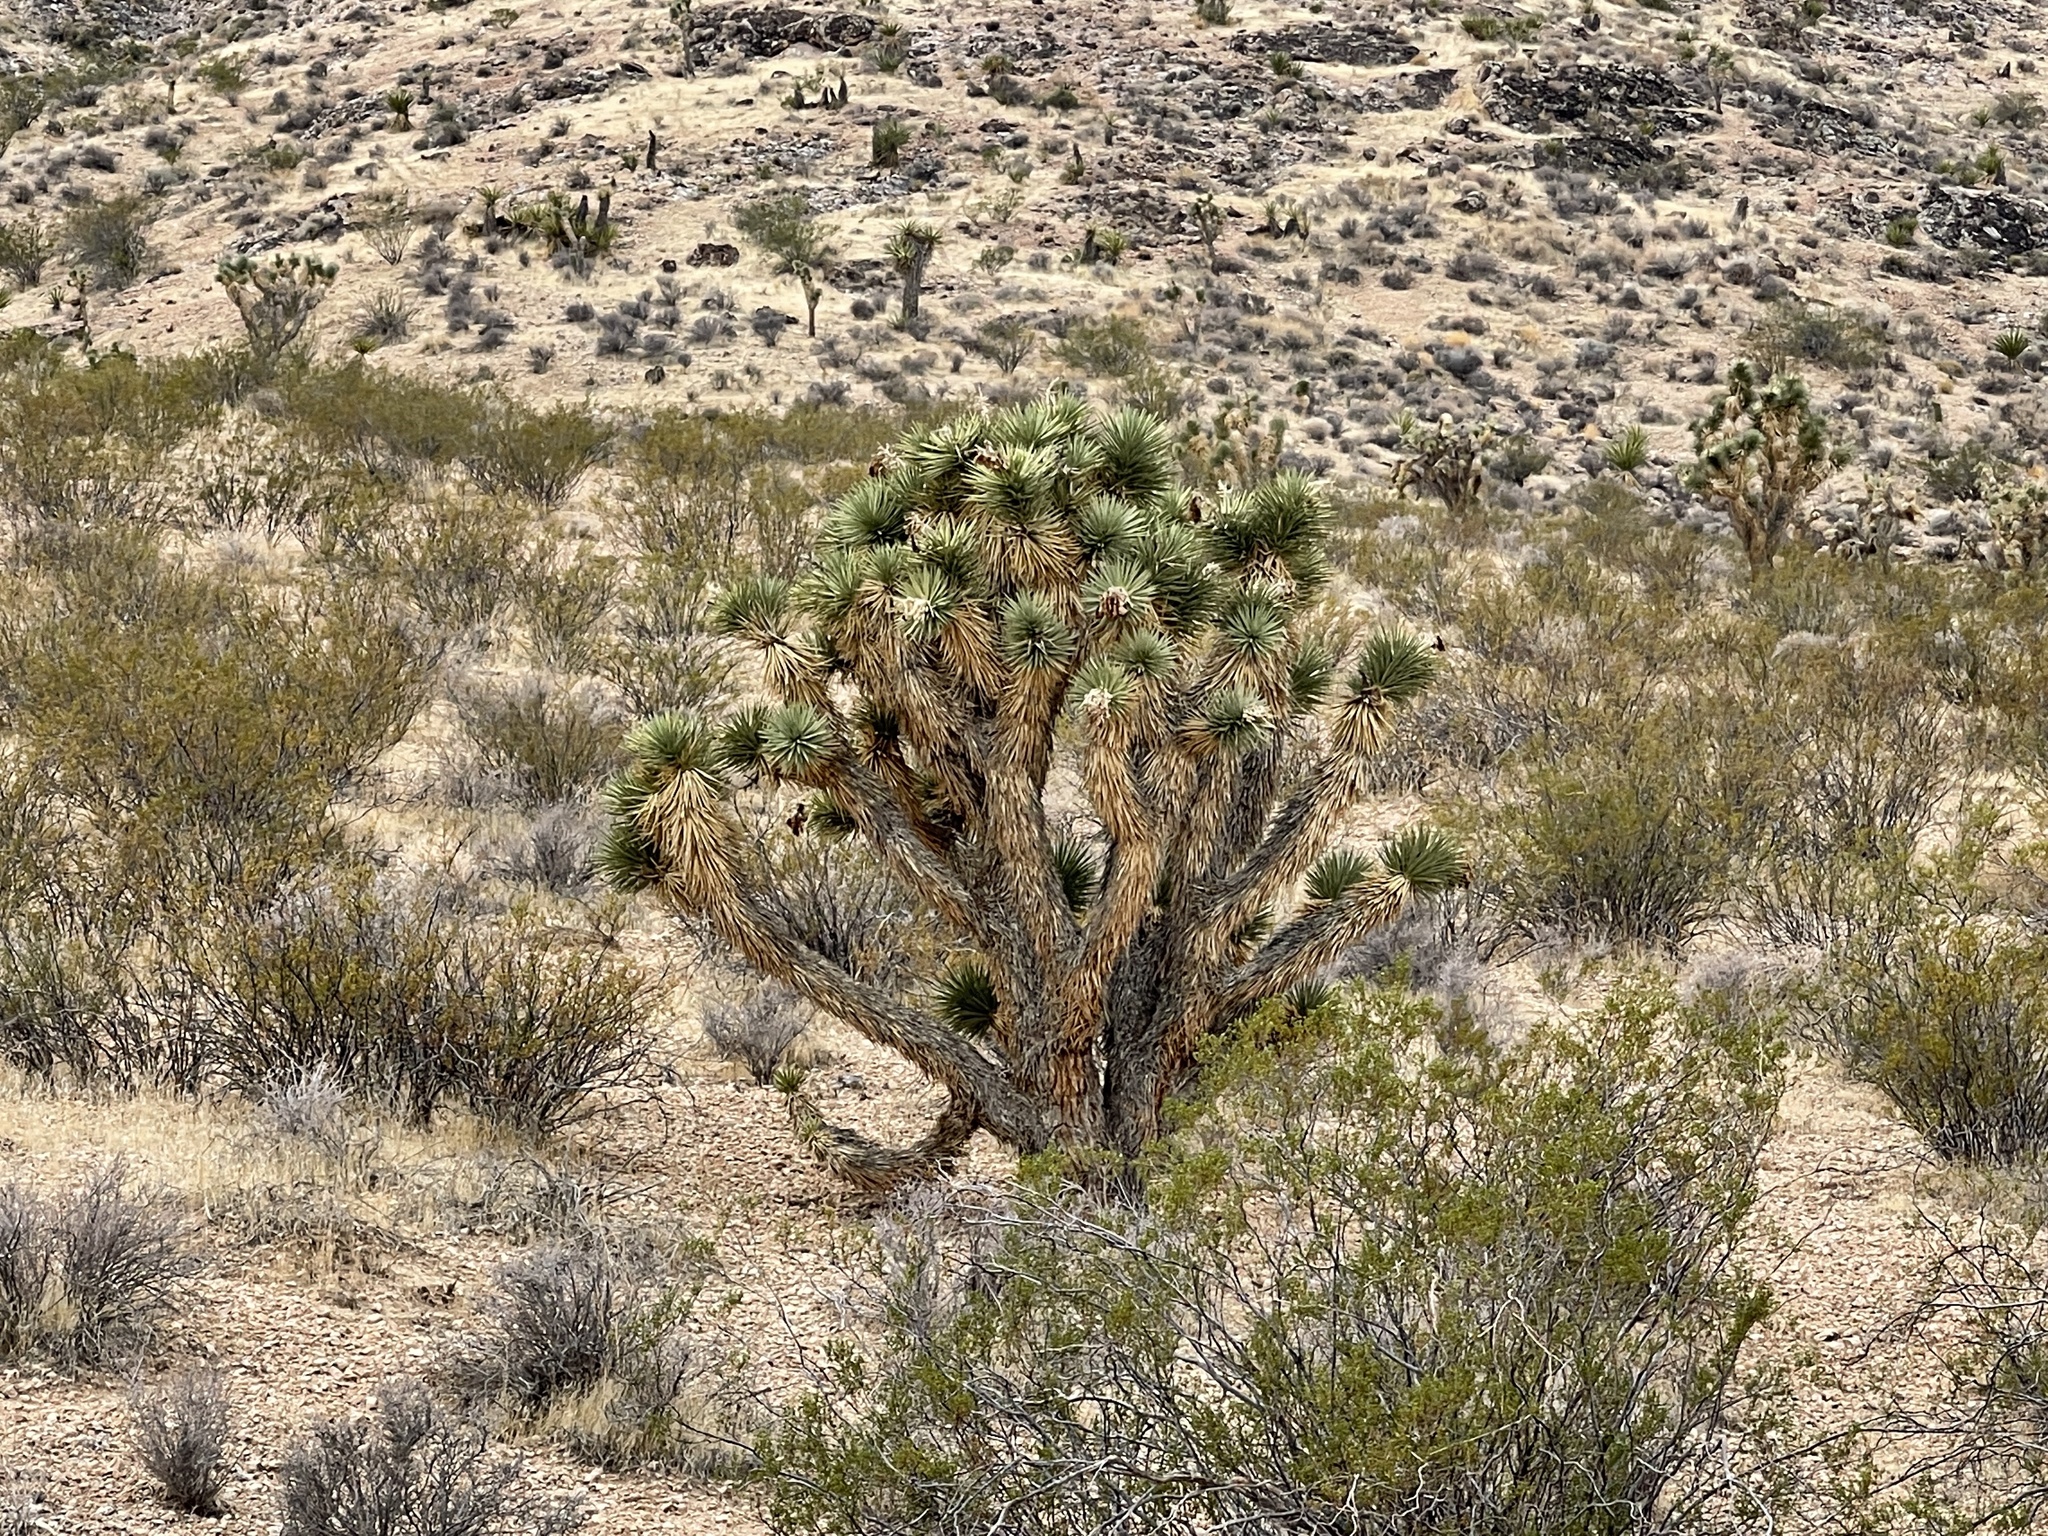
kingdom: Plantae
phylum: Tracheophyta
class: Liliopsida
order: Asparagales
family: Asparagaceae
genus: Yucca
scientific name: Yucca brevifolia
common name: Joshua tree
